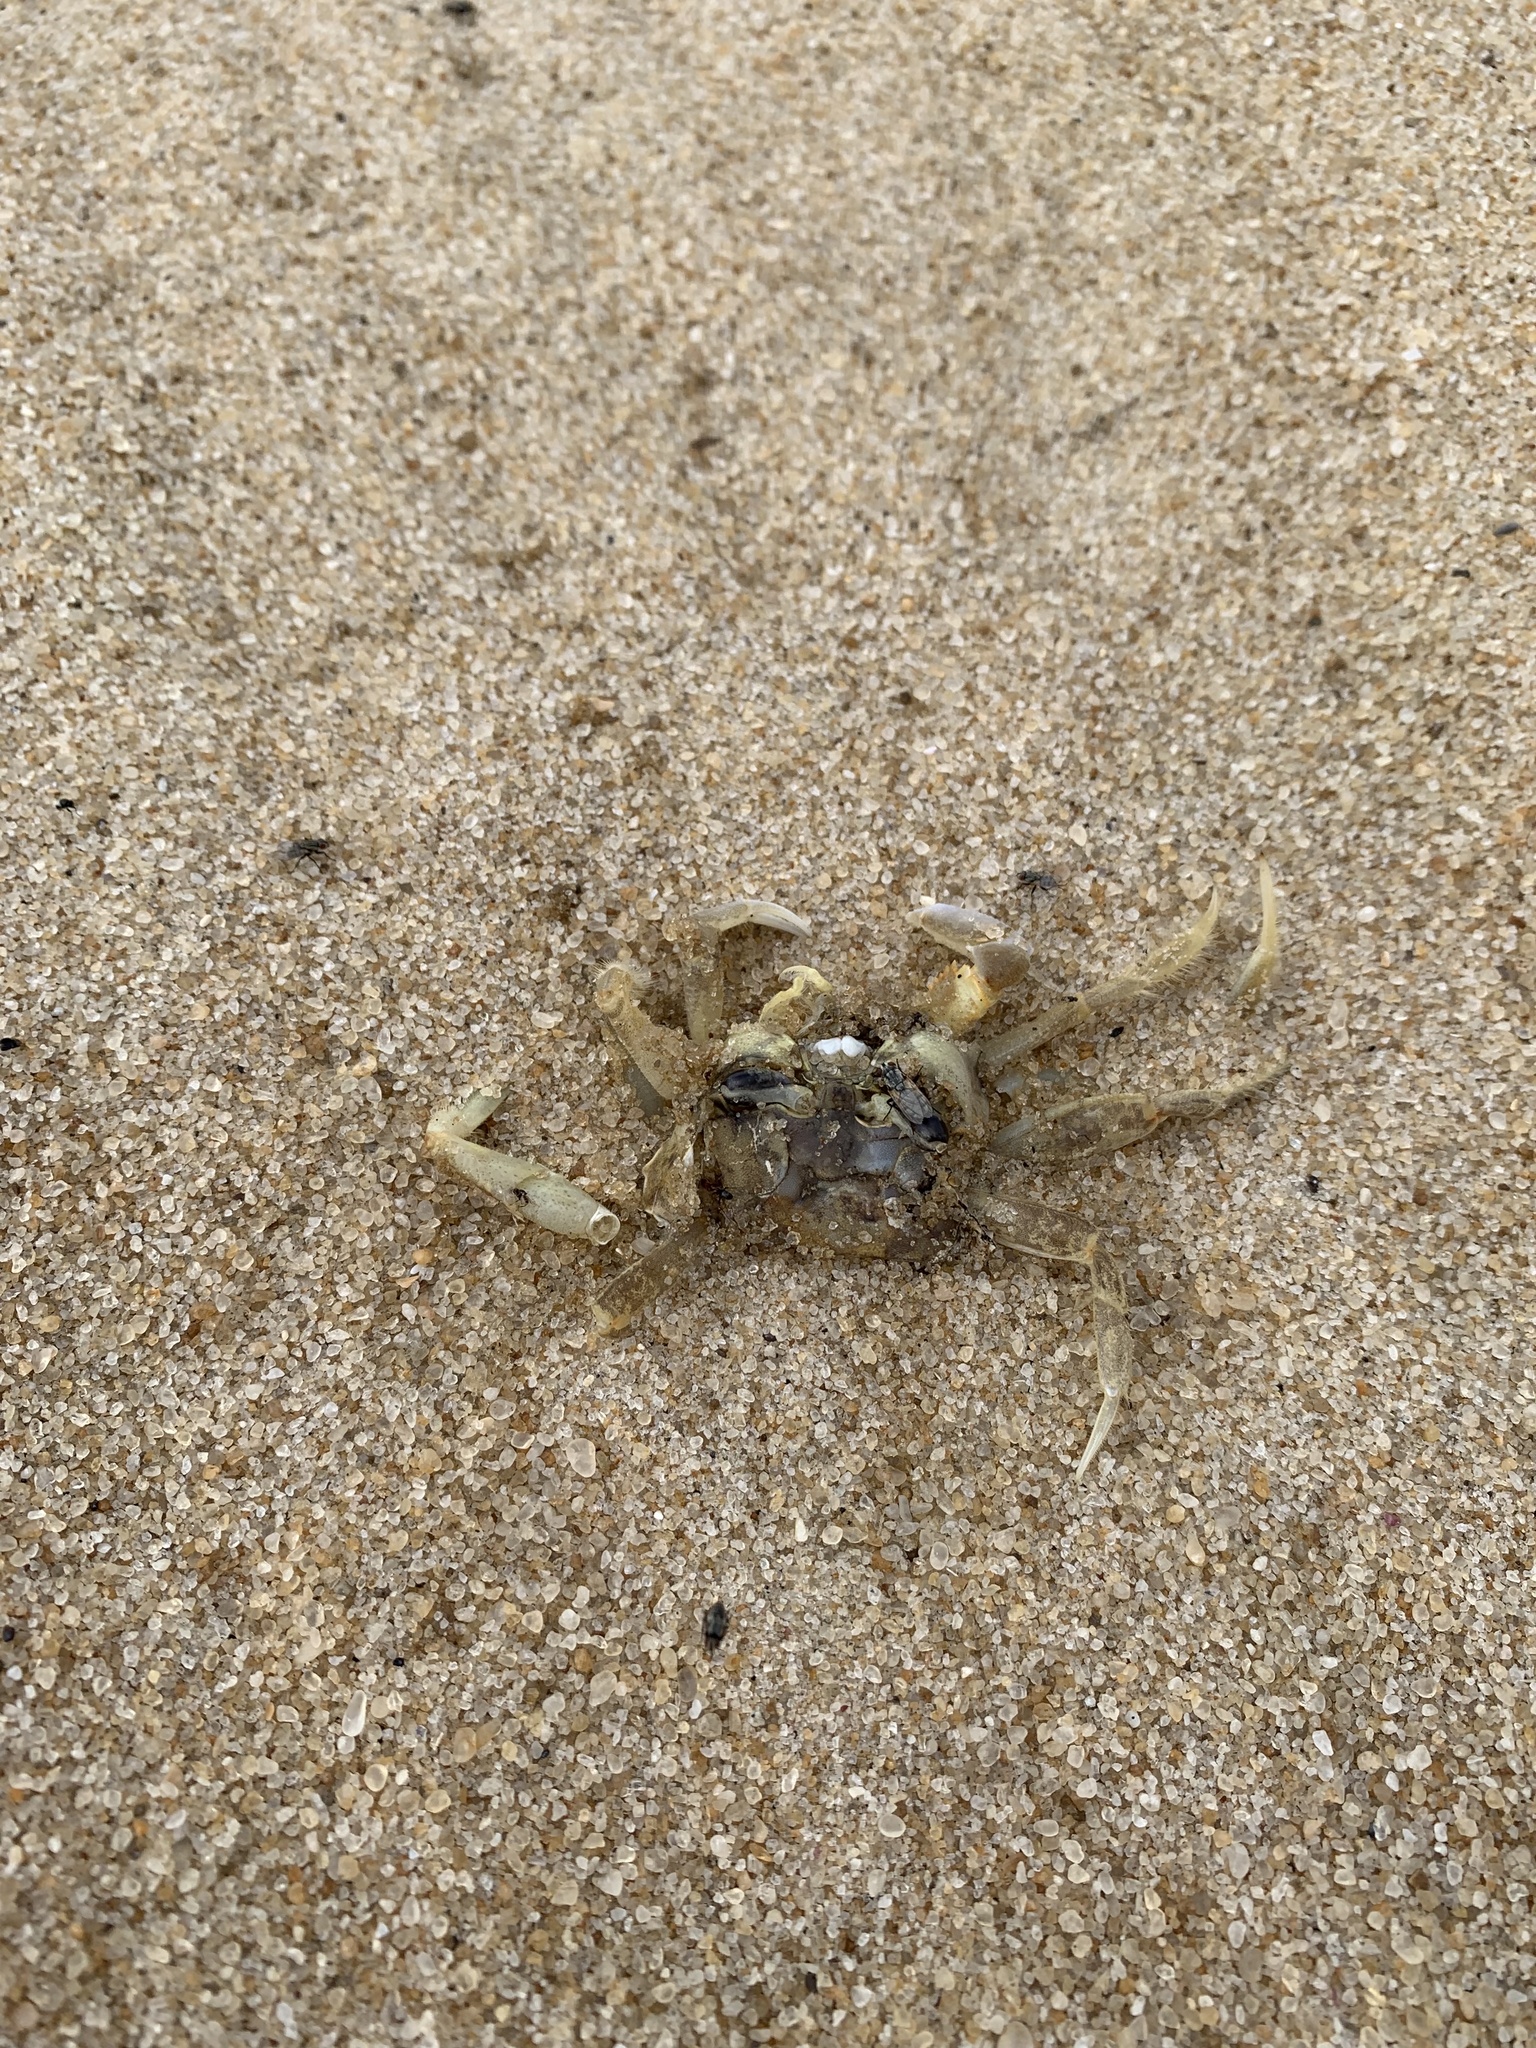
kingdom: Animalia
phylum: Arthropoda
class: Malacostraca
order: Decapoda
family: Ocypodidae
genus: Ocypode
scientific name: Ocypode quadrata
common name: Ghost crab
